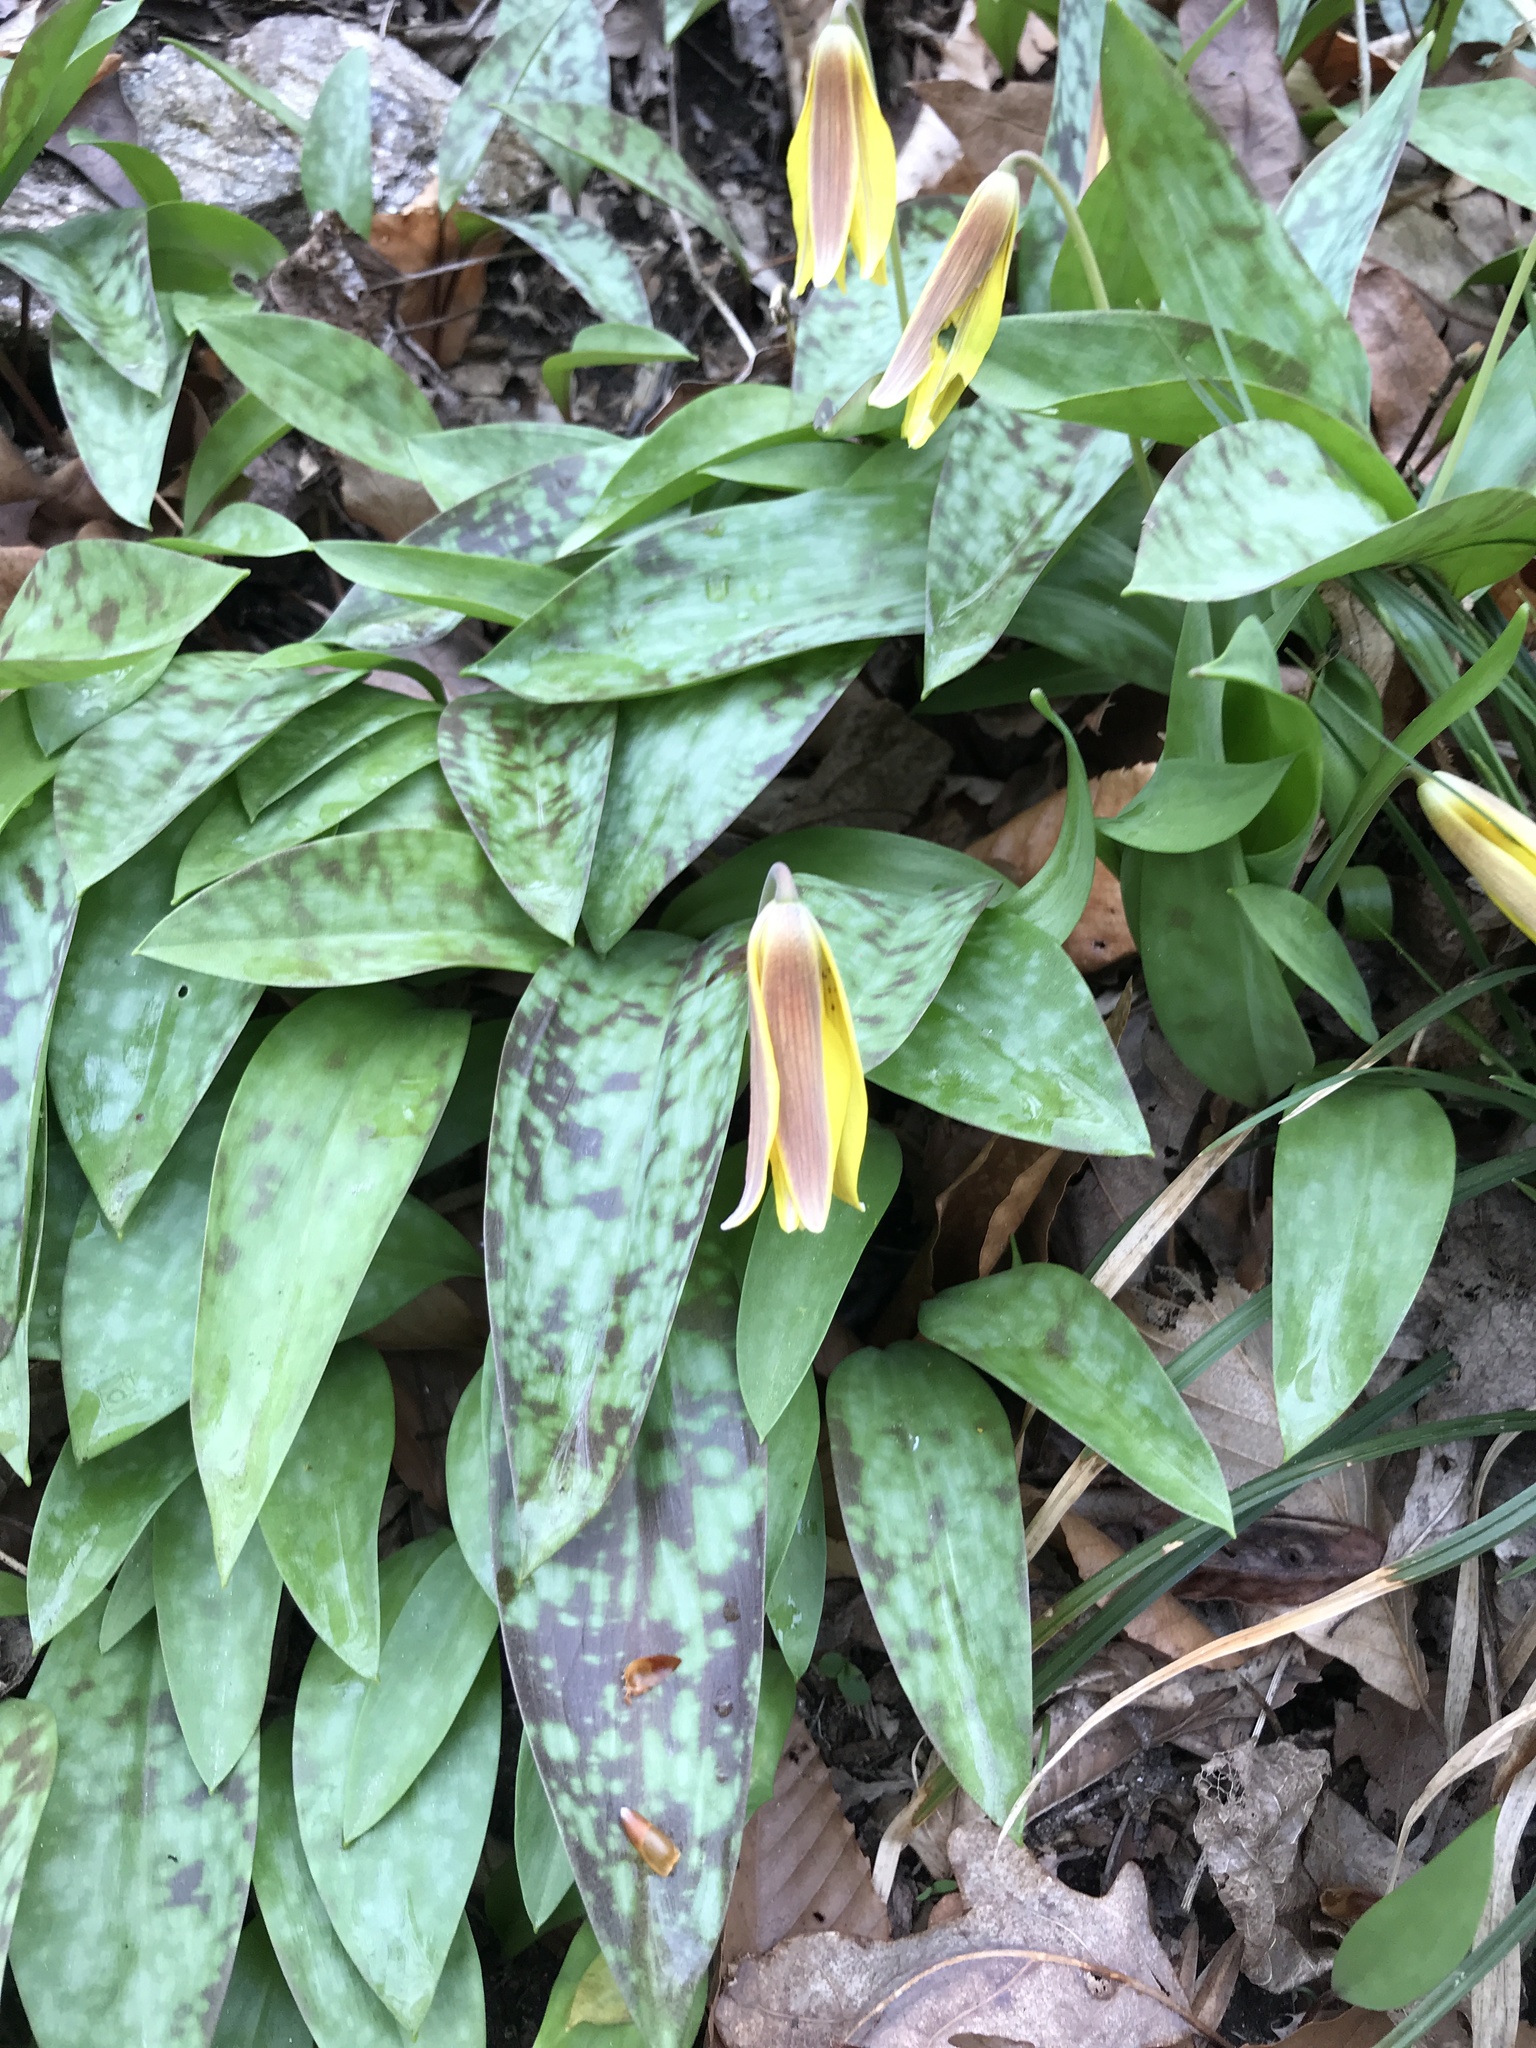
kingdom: Plantae
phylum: Tracheophyta
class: Liliopsida
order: Liliales
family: Liliaceae
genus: Erythronium
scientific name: Erythronium americanum
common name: Yellow adder's-tongue
